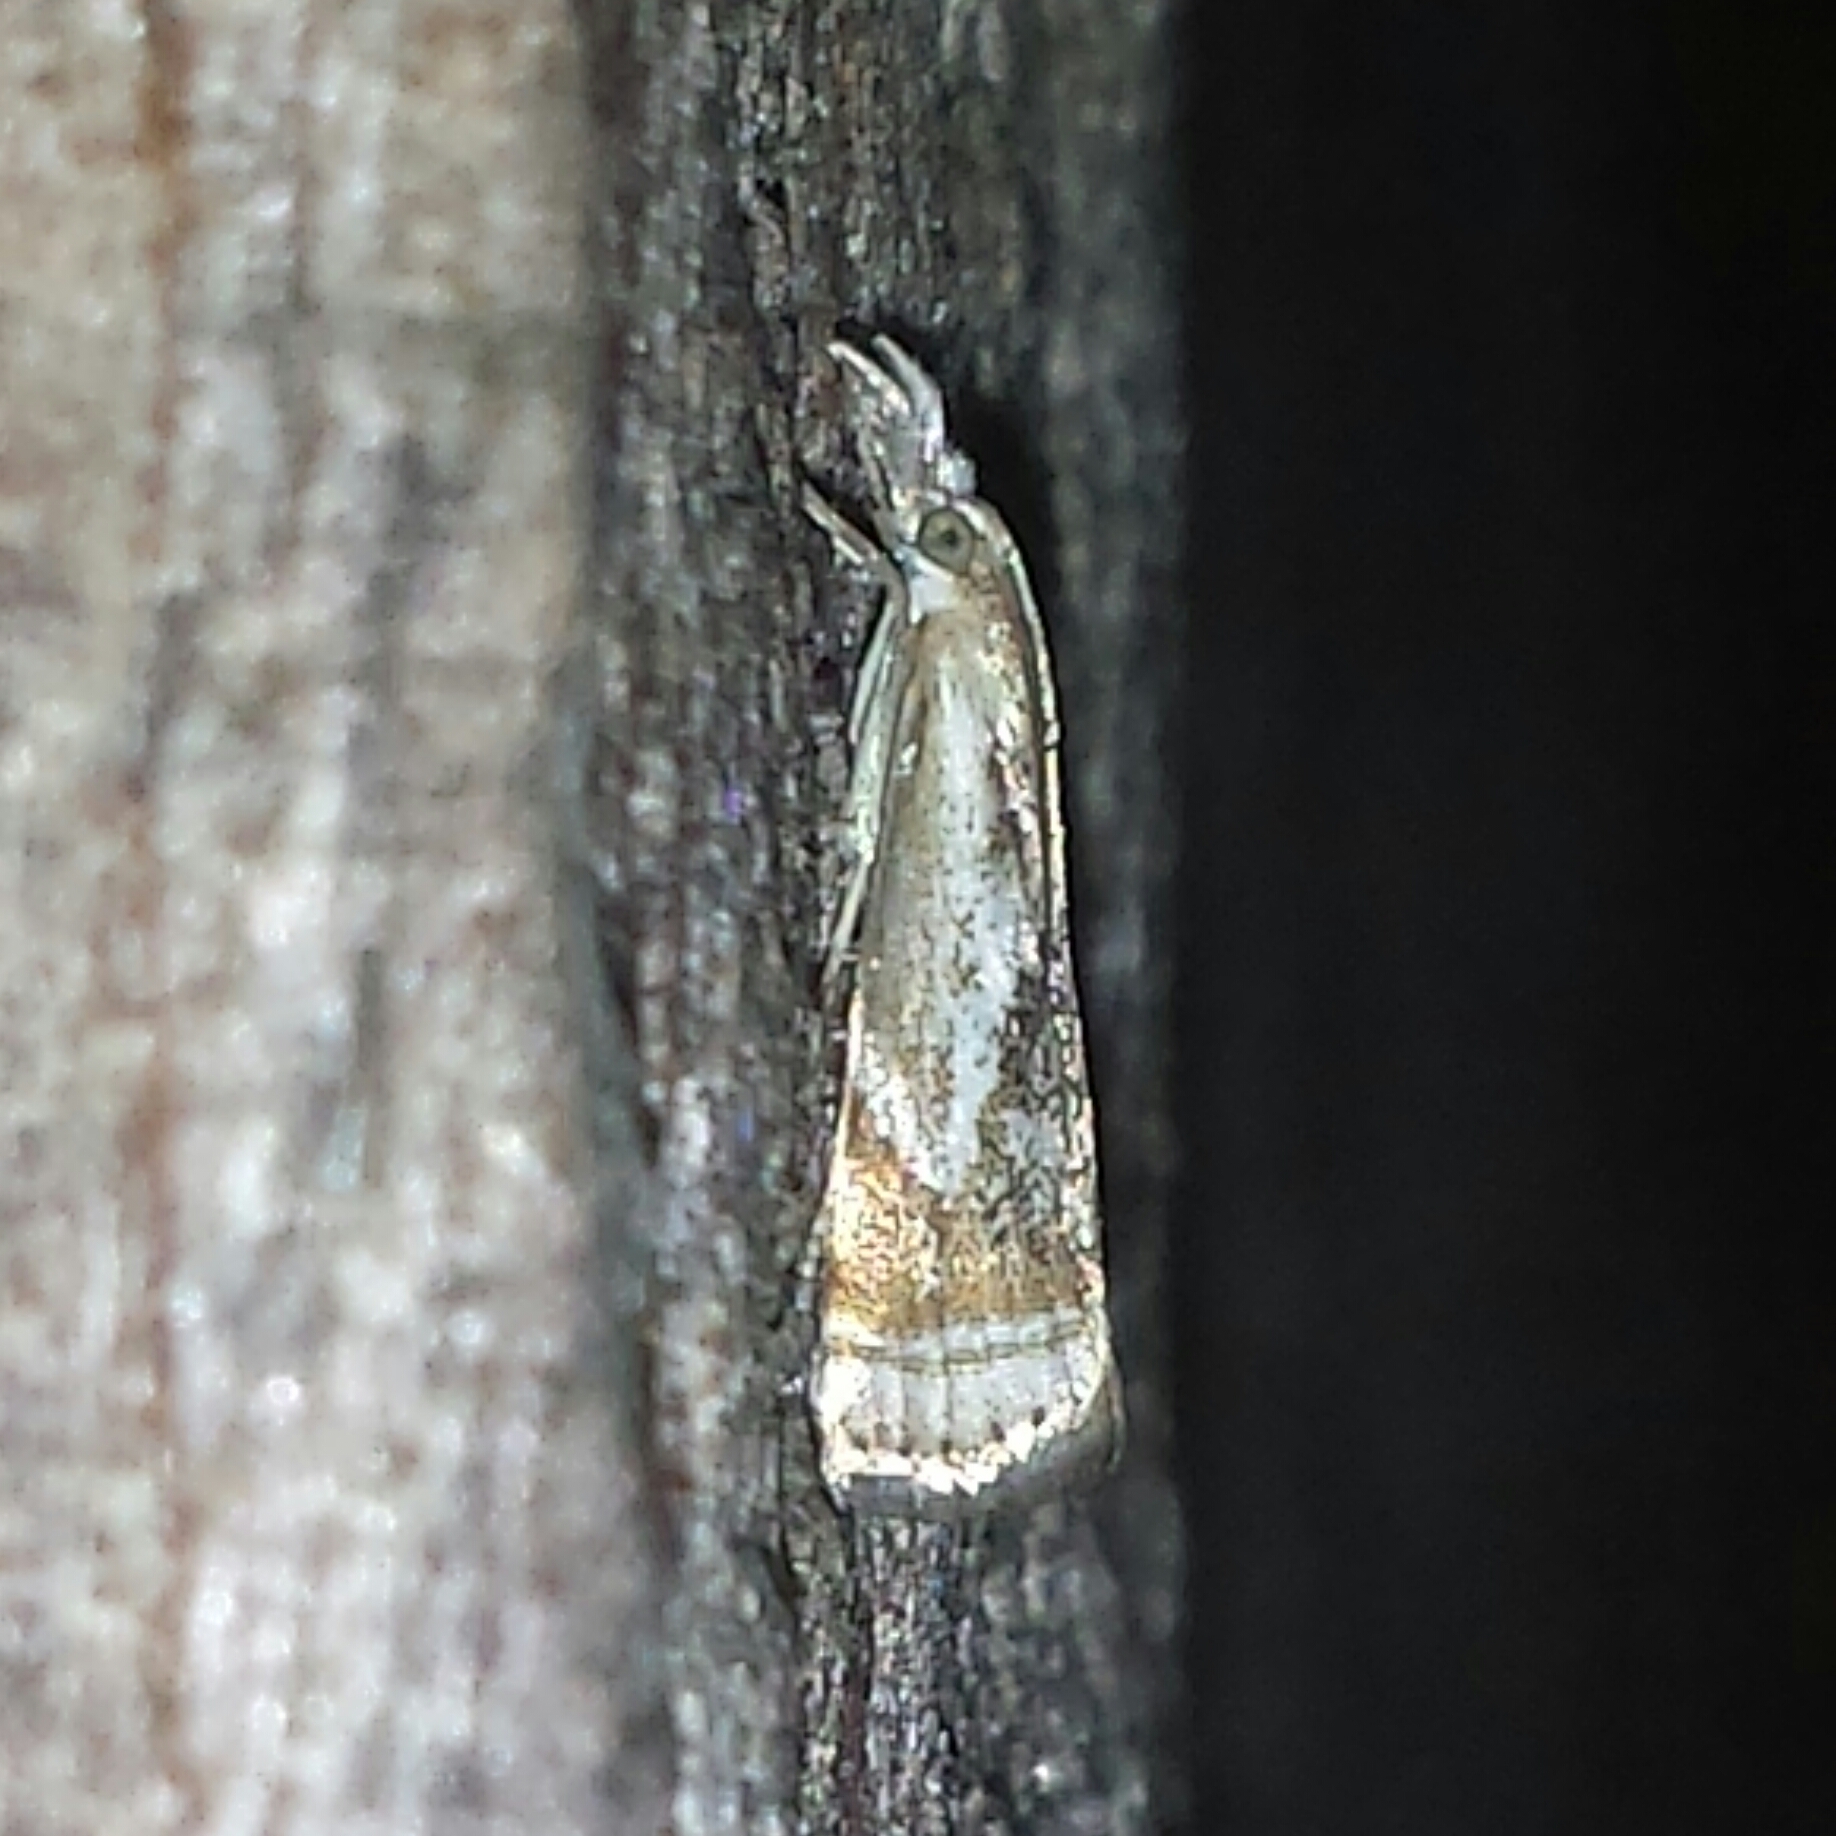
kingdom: Animalia
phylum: Arthropoda
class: Insecta
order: Lepidoptera
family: Crambidae
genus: Microcrambus
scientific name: Microcrambus elegans
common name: Elegant grass-veneer
